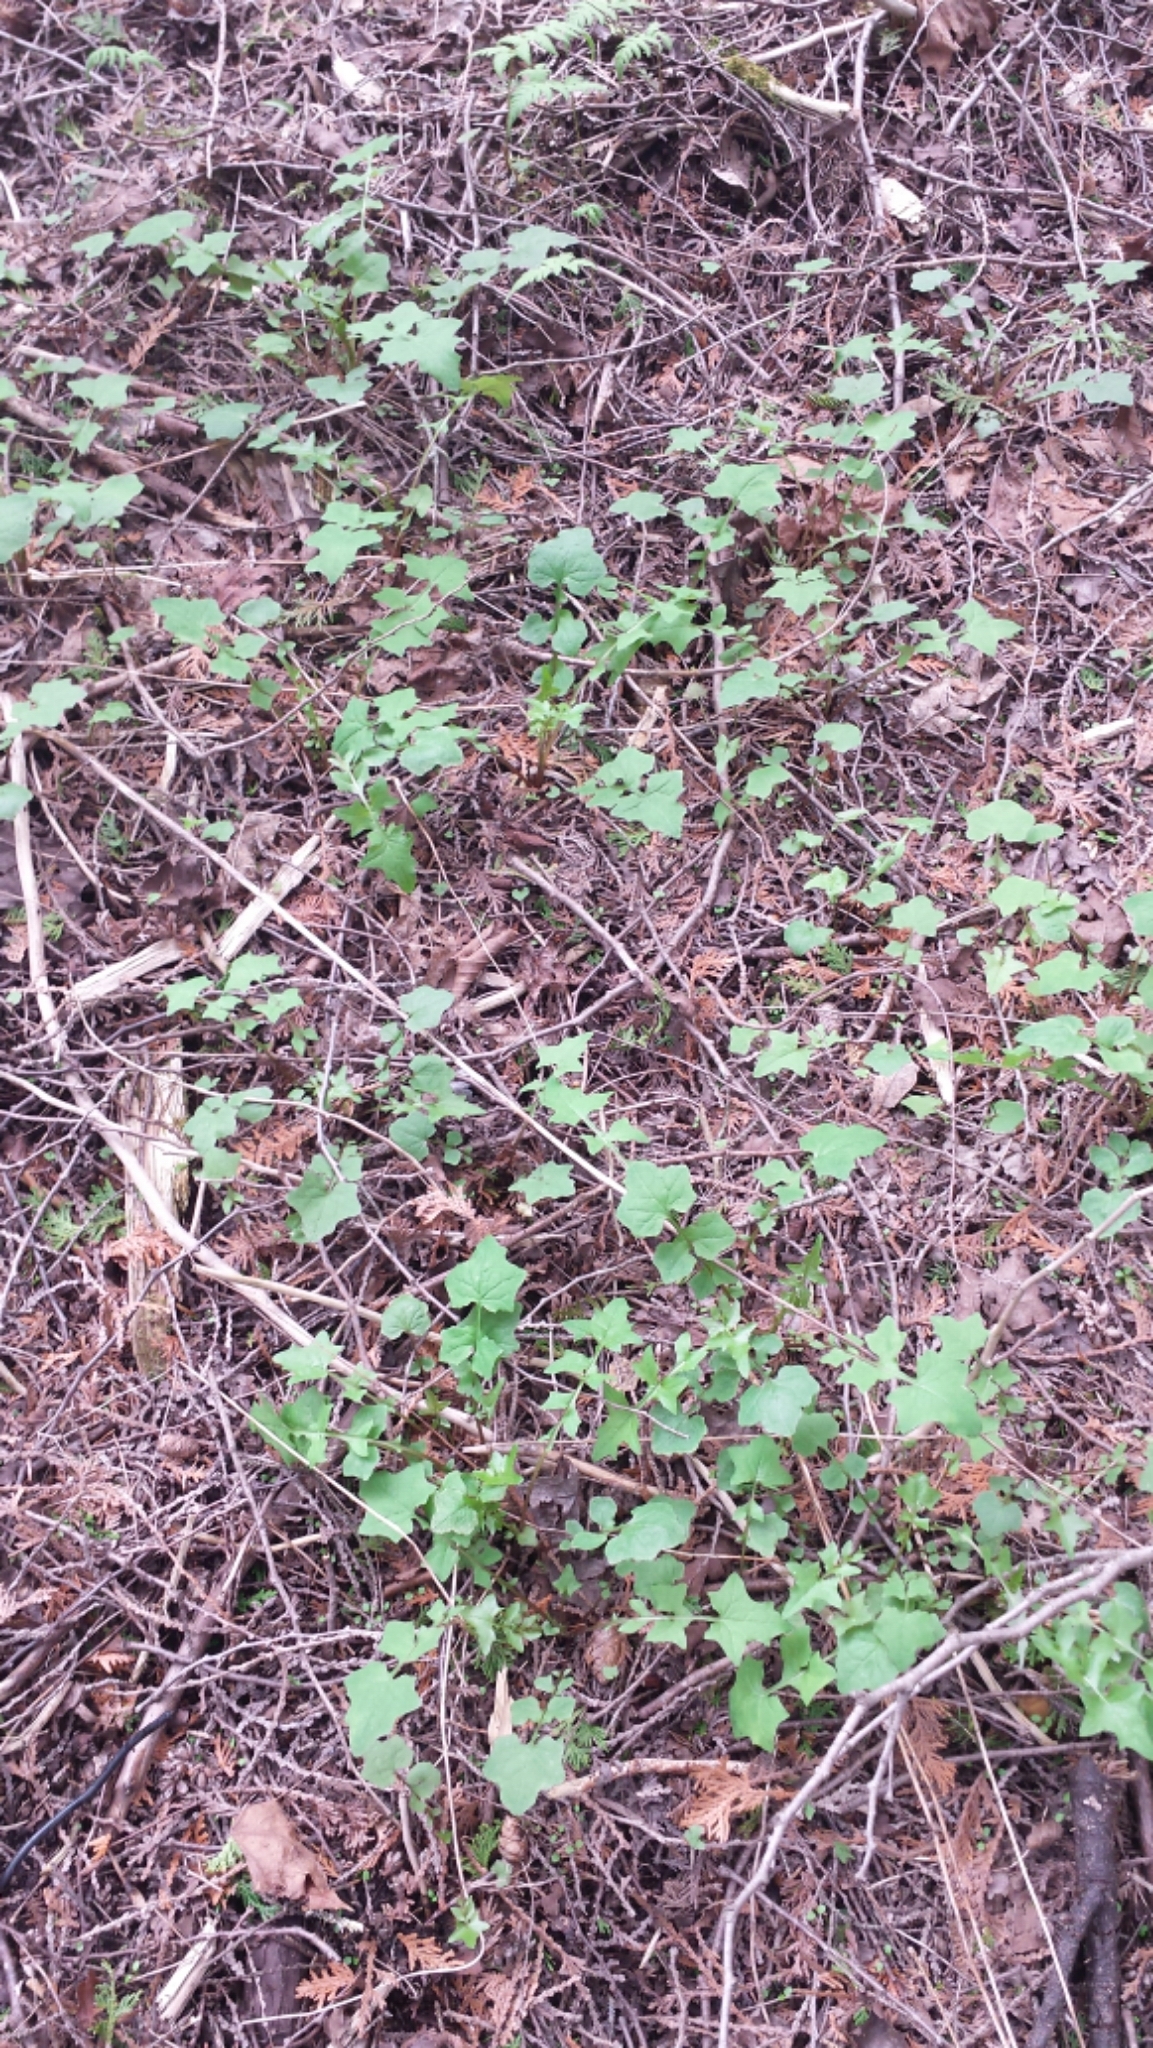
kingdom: Plantae
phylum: Tracheophyta
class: Magnoliopsida
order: Asterales
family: Asteraceae
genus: Mycelis
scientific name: Mycelis muralis
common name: Wall lettuce
